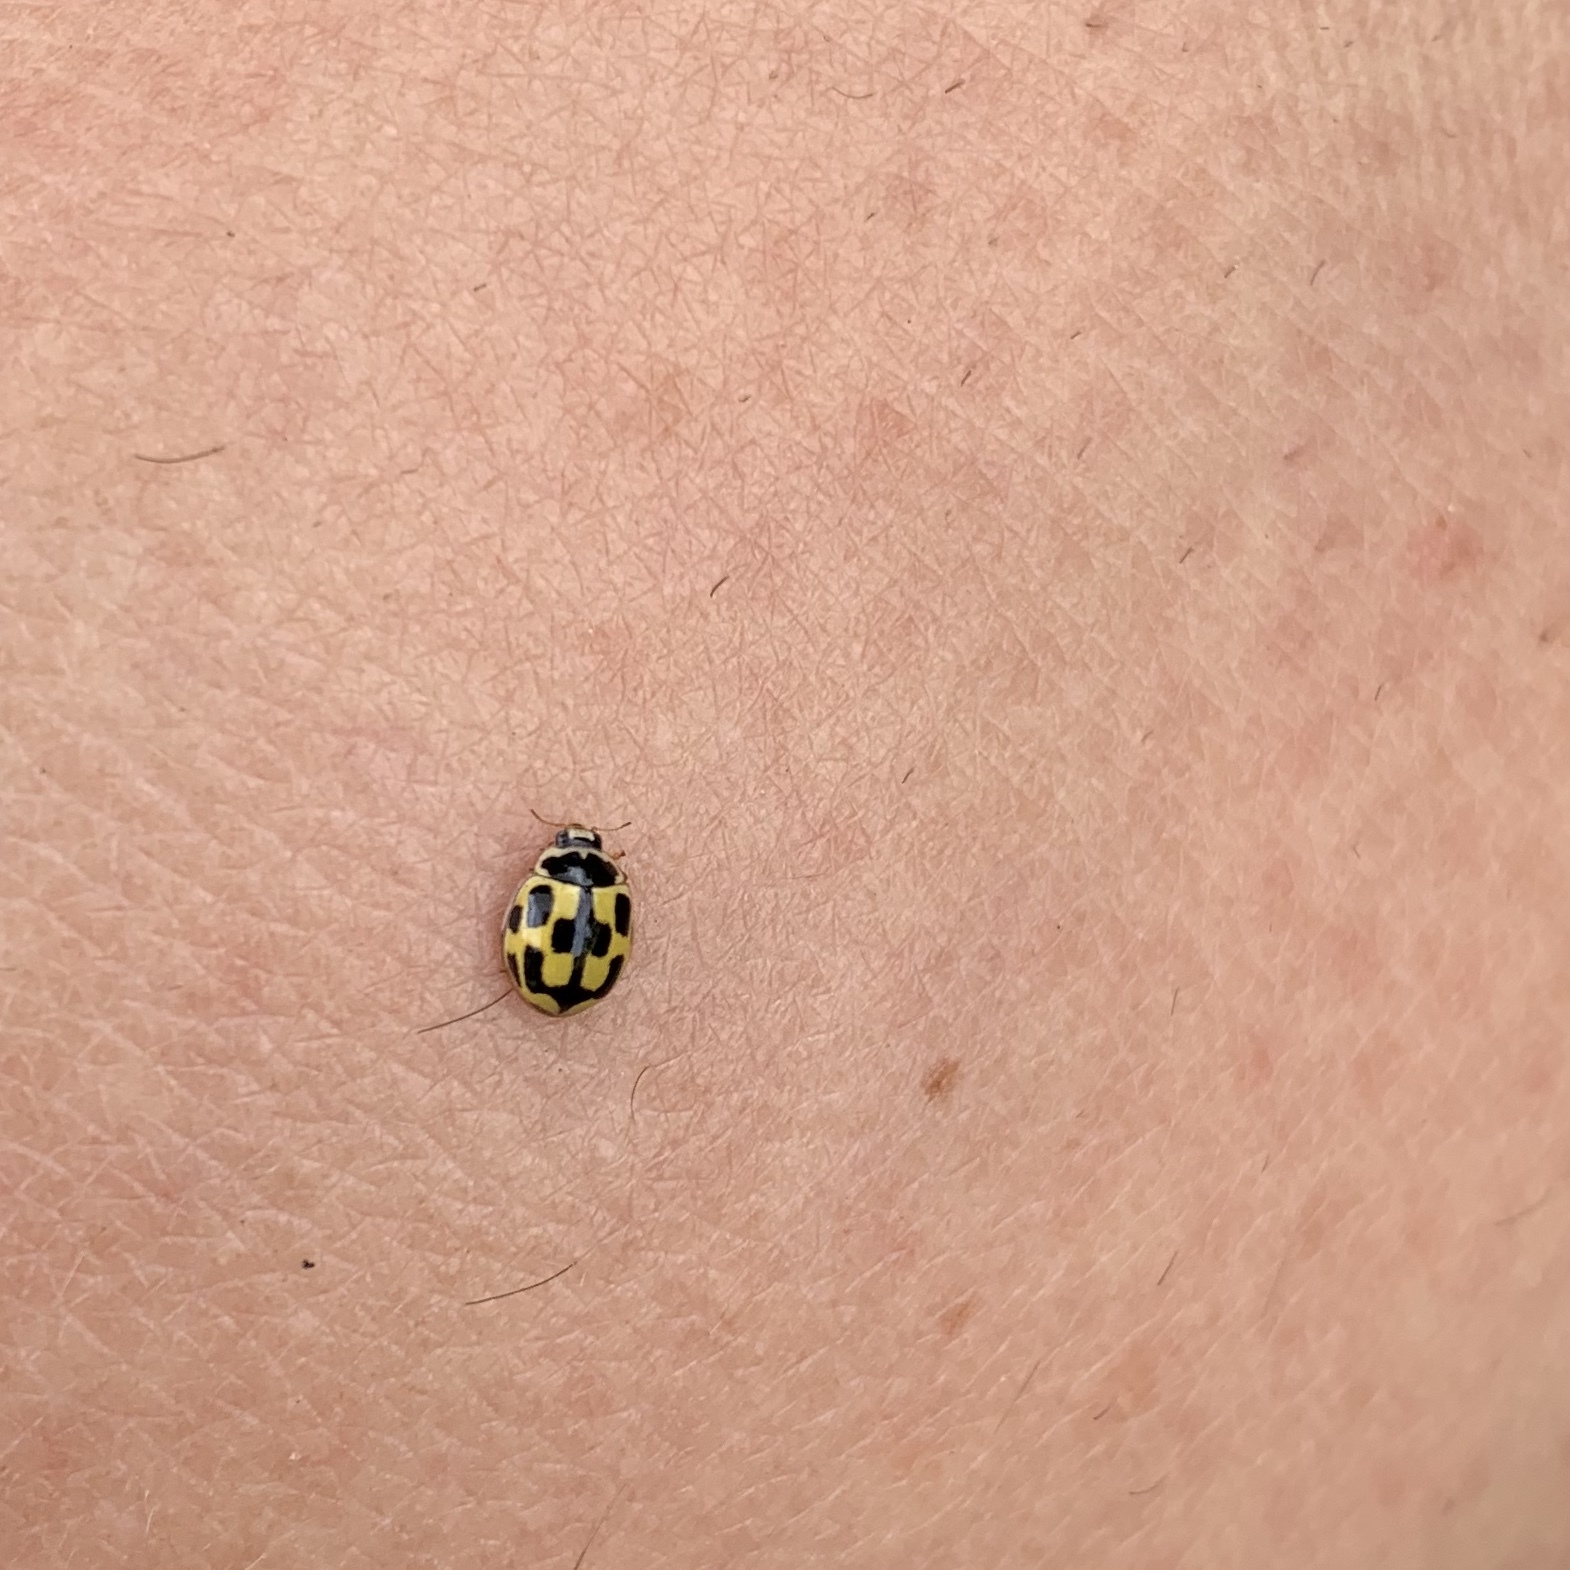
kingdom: Animalia
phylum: Arthropoda
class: Insecta
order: Coleoptera
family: Coccinellidae
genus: Propylaea
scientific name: Propylaea quatuordecimpunctata
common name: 14-spotted ladybird beetle
